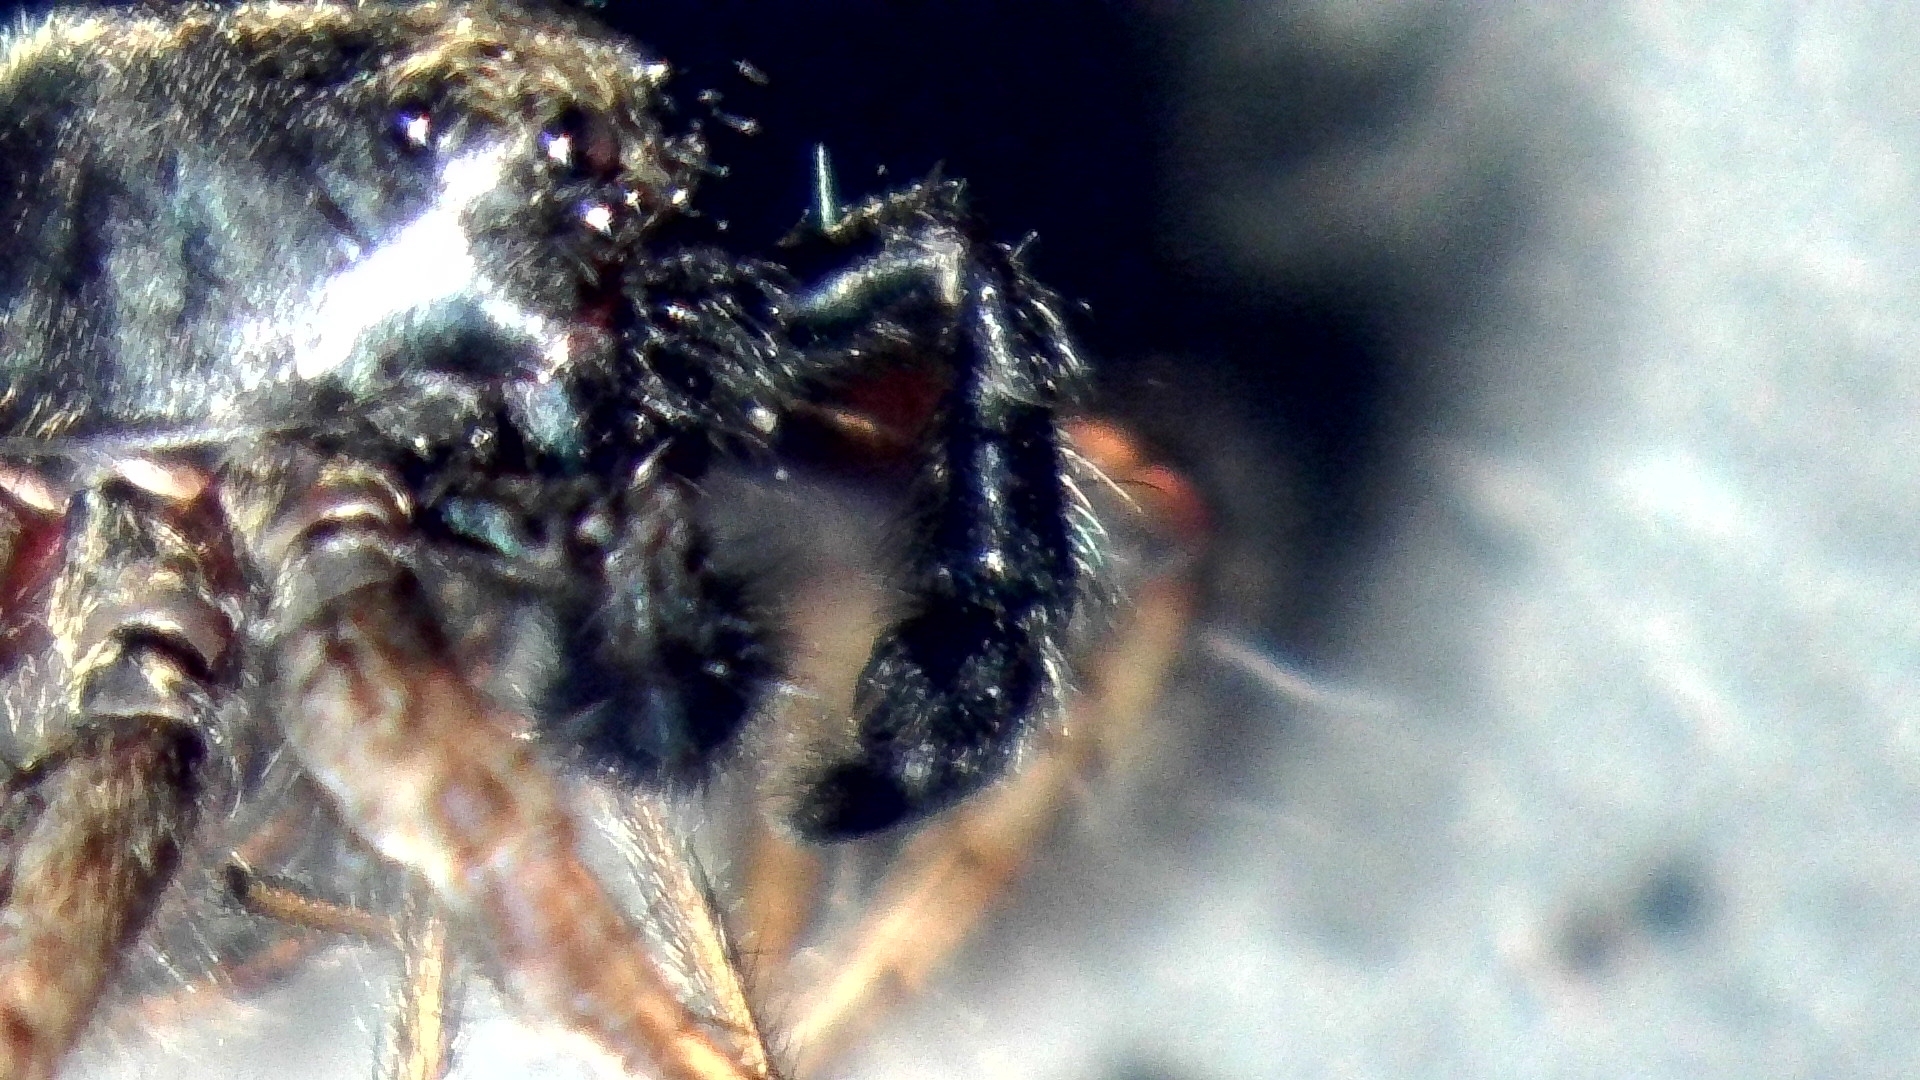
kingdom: Animalia
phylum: Arthropoda
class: Arachnida
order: Araneae
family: Lycosidae
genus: Pardosa
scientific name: Pardosa amentata
